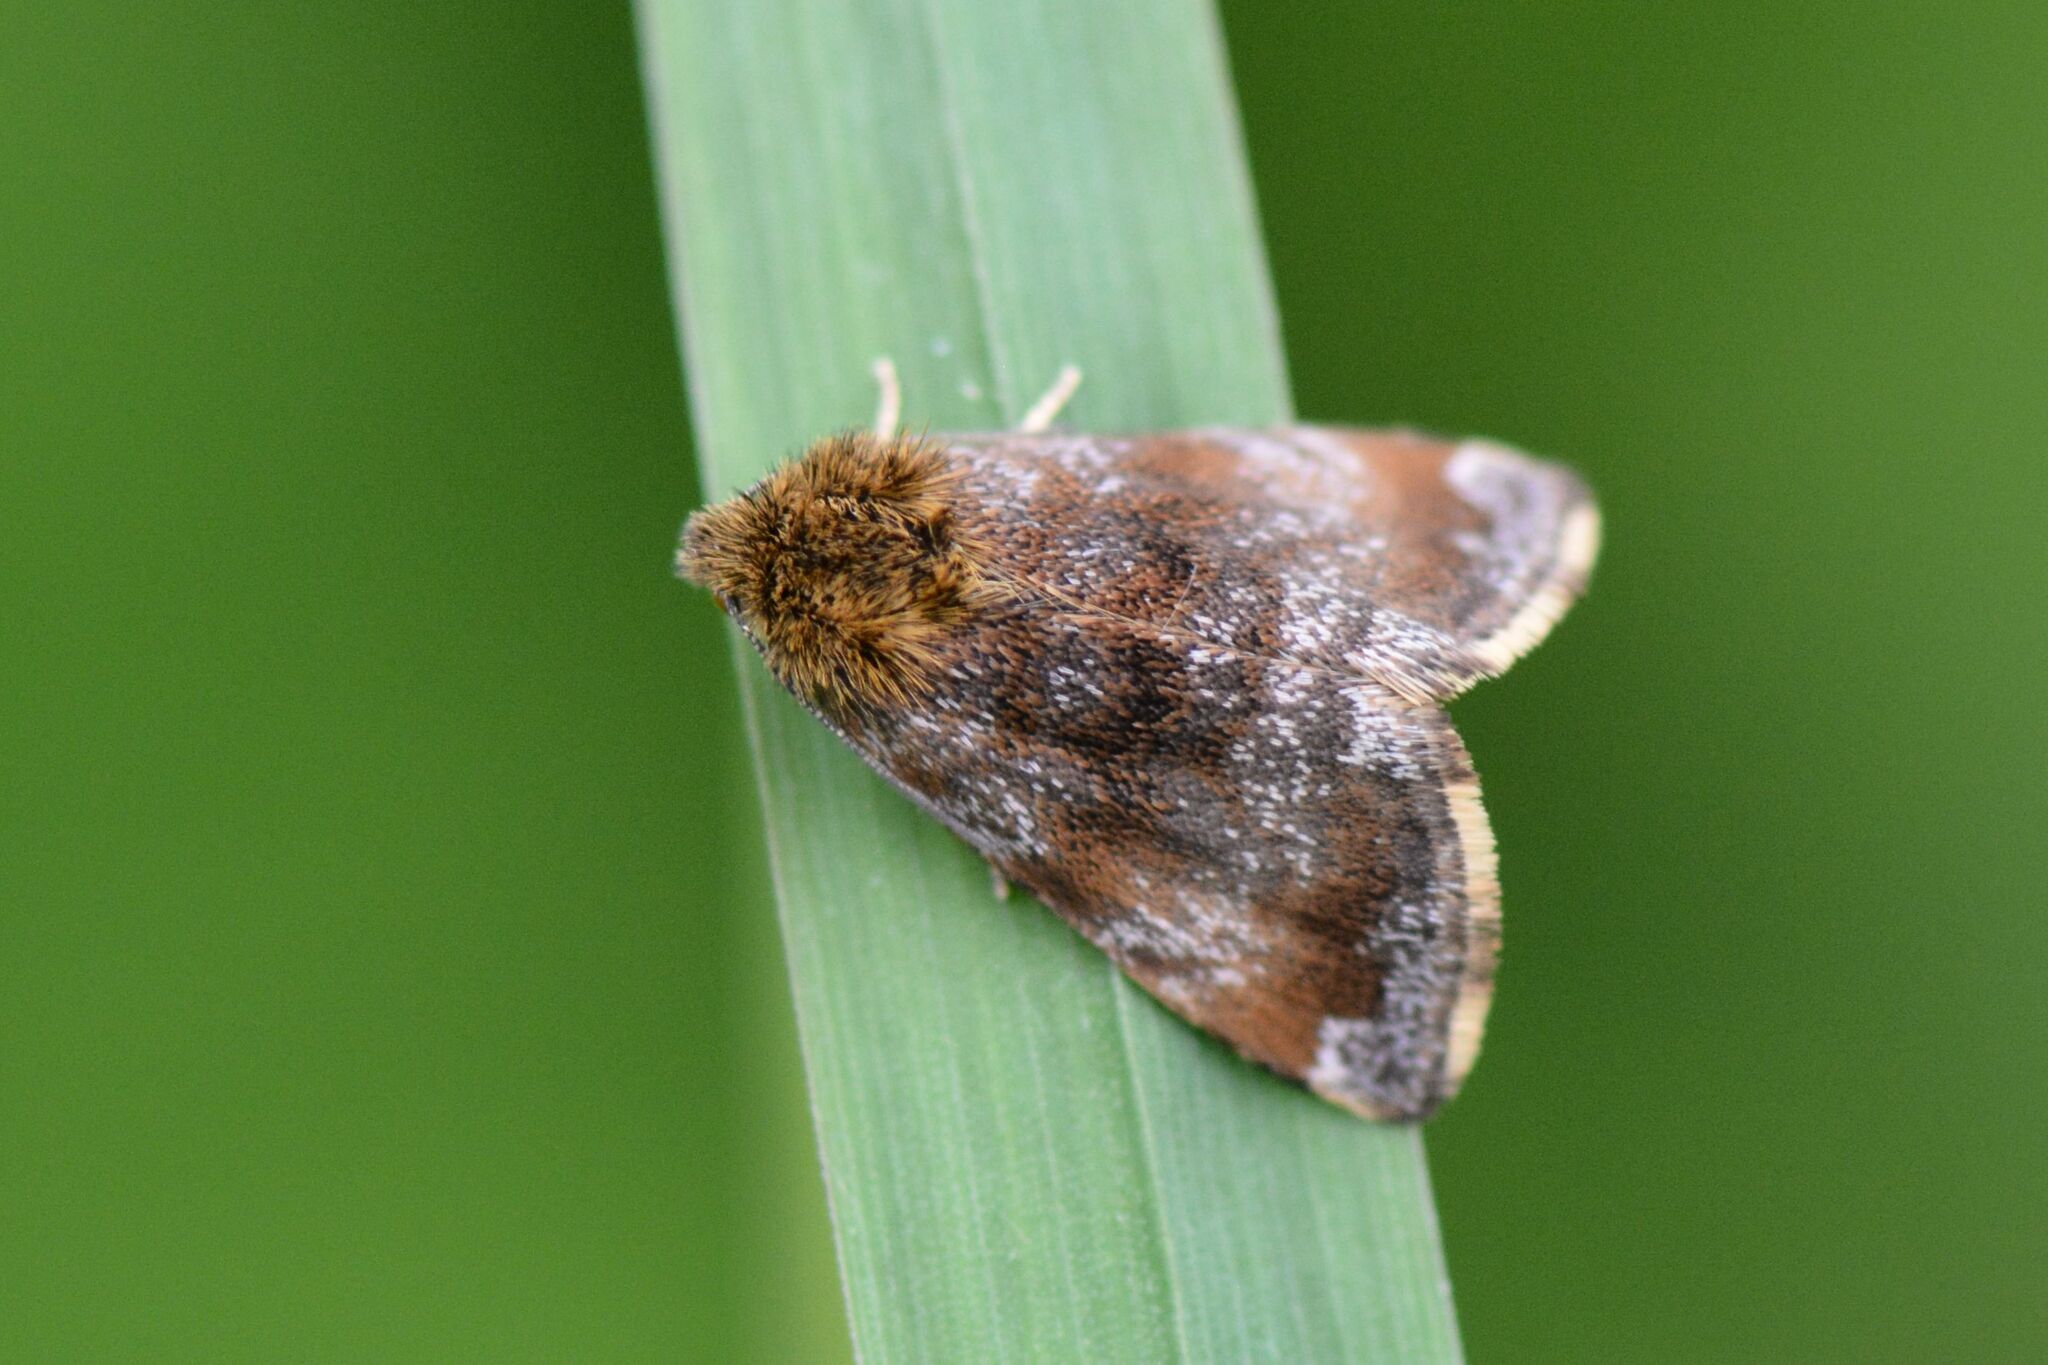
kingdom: Animalia
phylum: Arthropoda
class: Insecta
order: Lepidoptera
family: Noctuidae
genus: Panemeria
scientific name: Panemeria tenebrata
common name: Small yellow underwing
